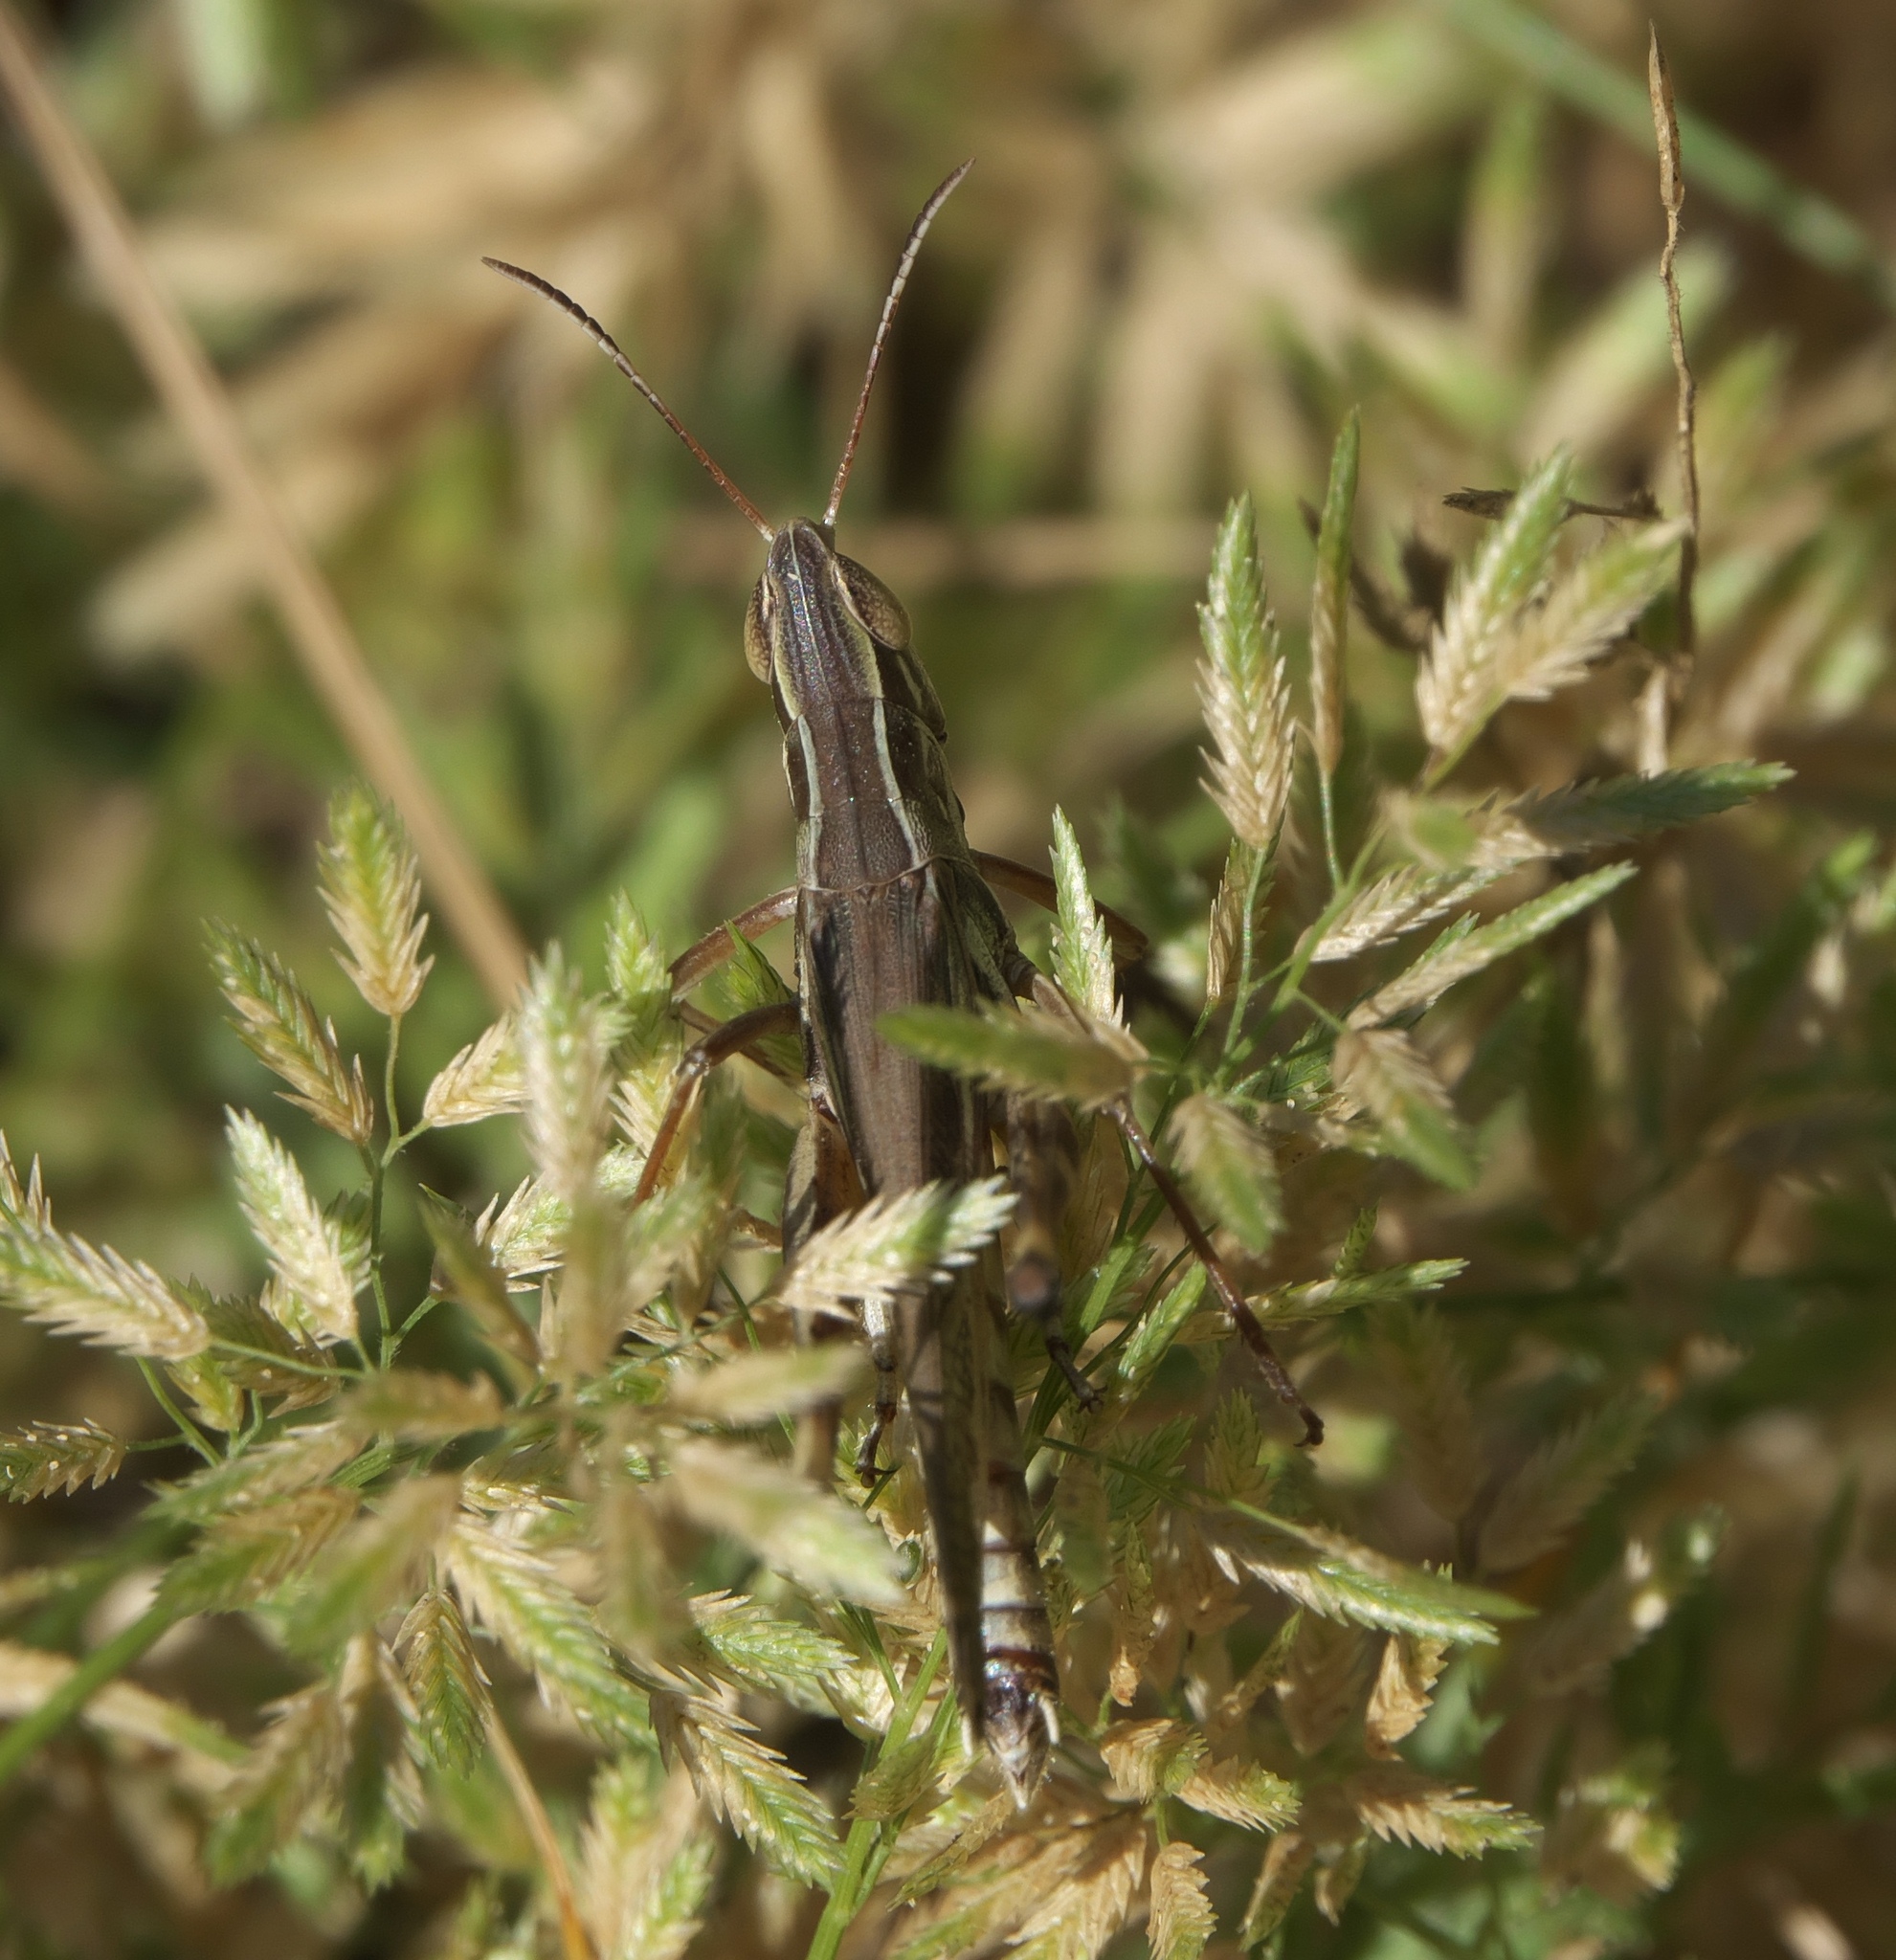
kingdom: Animalia
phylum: Arthropoda
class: Insecta
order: Orthoptera
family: Acrididae
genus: Syrbula
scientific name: Syrbula admirabilis
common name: Handsome grasshopper
